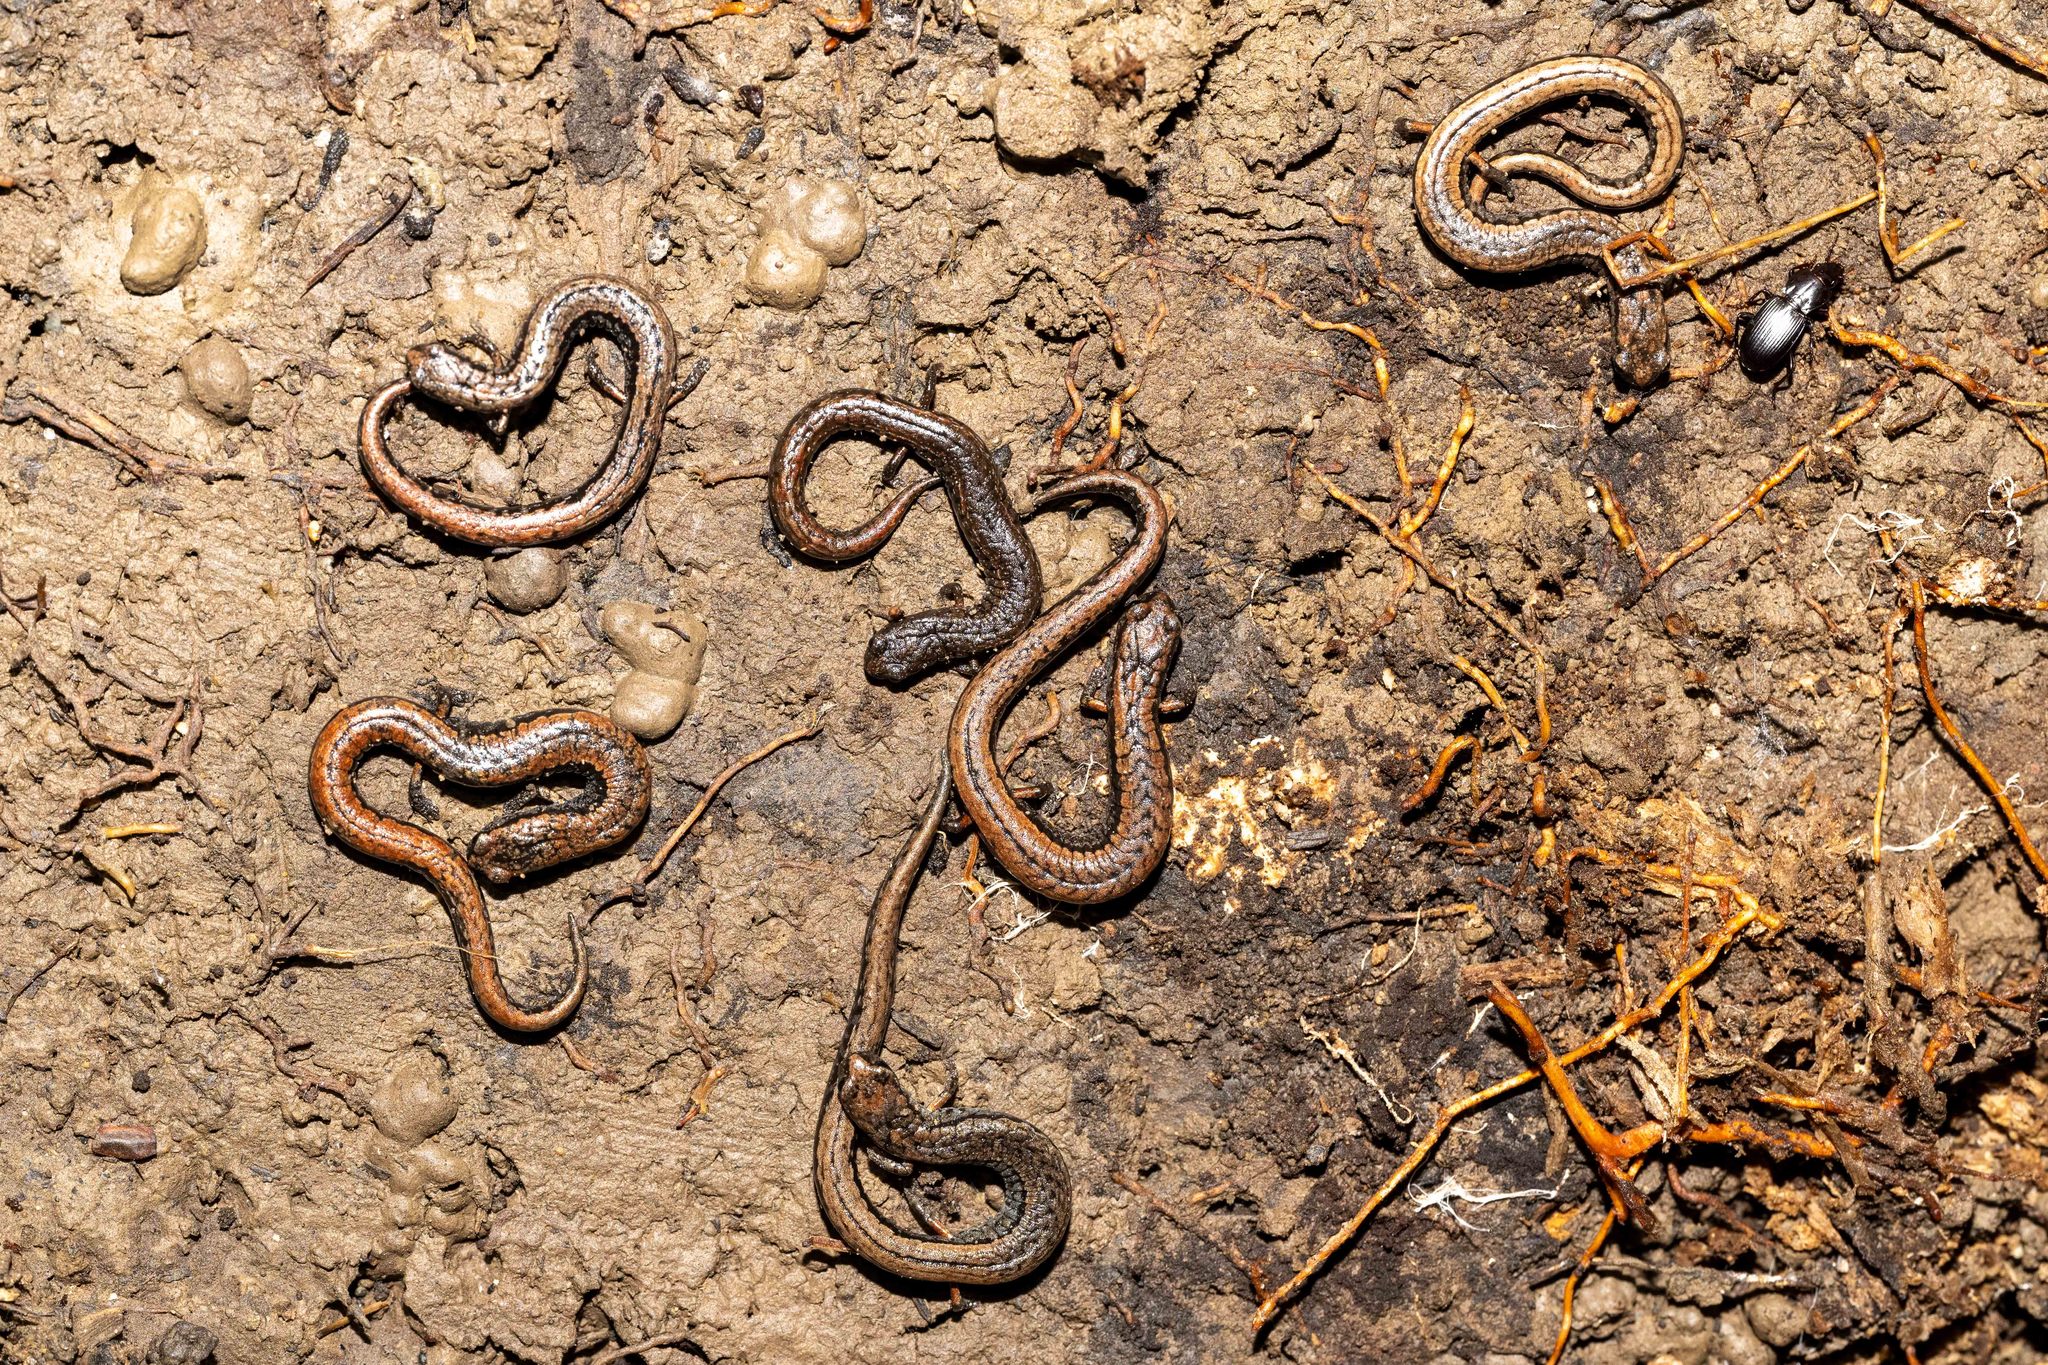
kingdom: Animalia
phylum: Chordata
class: Amphibia
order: Caudata
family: Plethodontidae
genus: Batrachoseps
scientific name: Batrachoseps attenuatus
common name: California slender salamander
